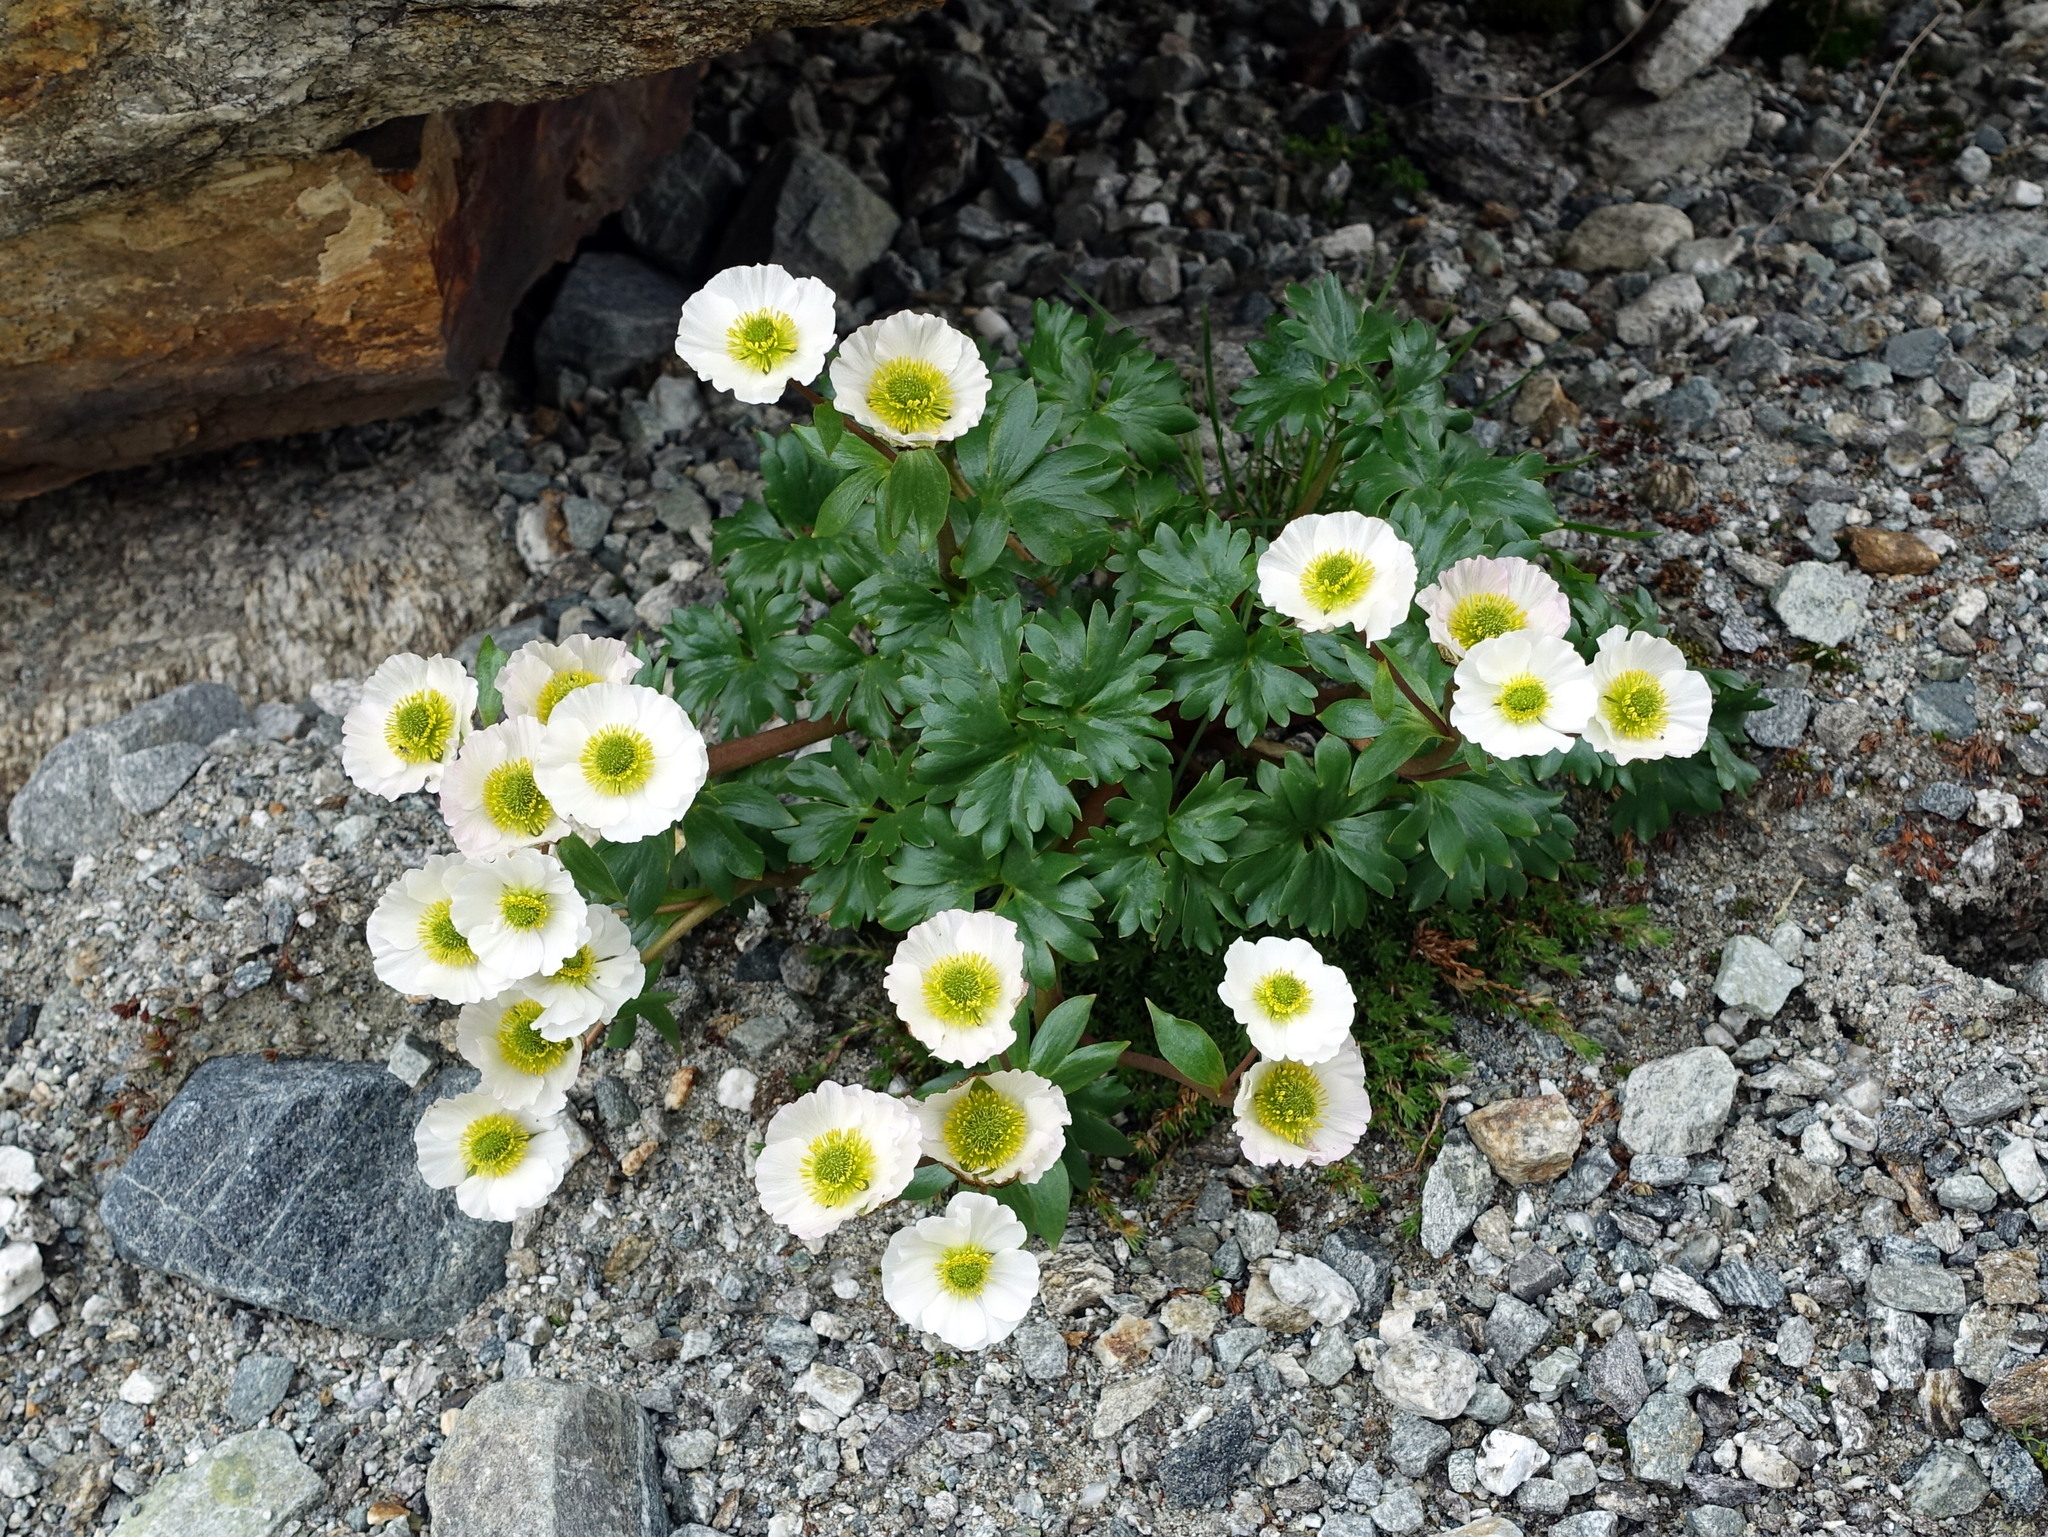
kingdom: Plantae
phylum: Tracheophyta
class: Magnoliopsida
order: Ranunculales
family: Ranunculaceae
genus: Ranunculus
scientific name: Ranunculus glacialis
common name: Glacier buttercup
